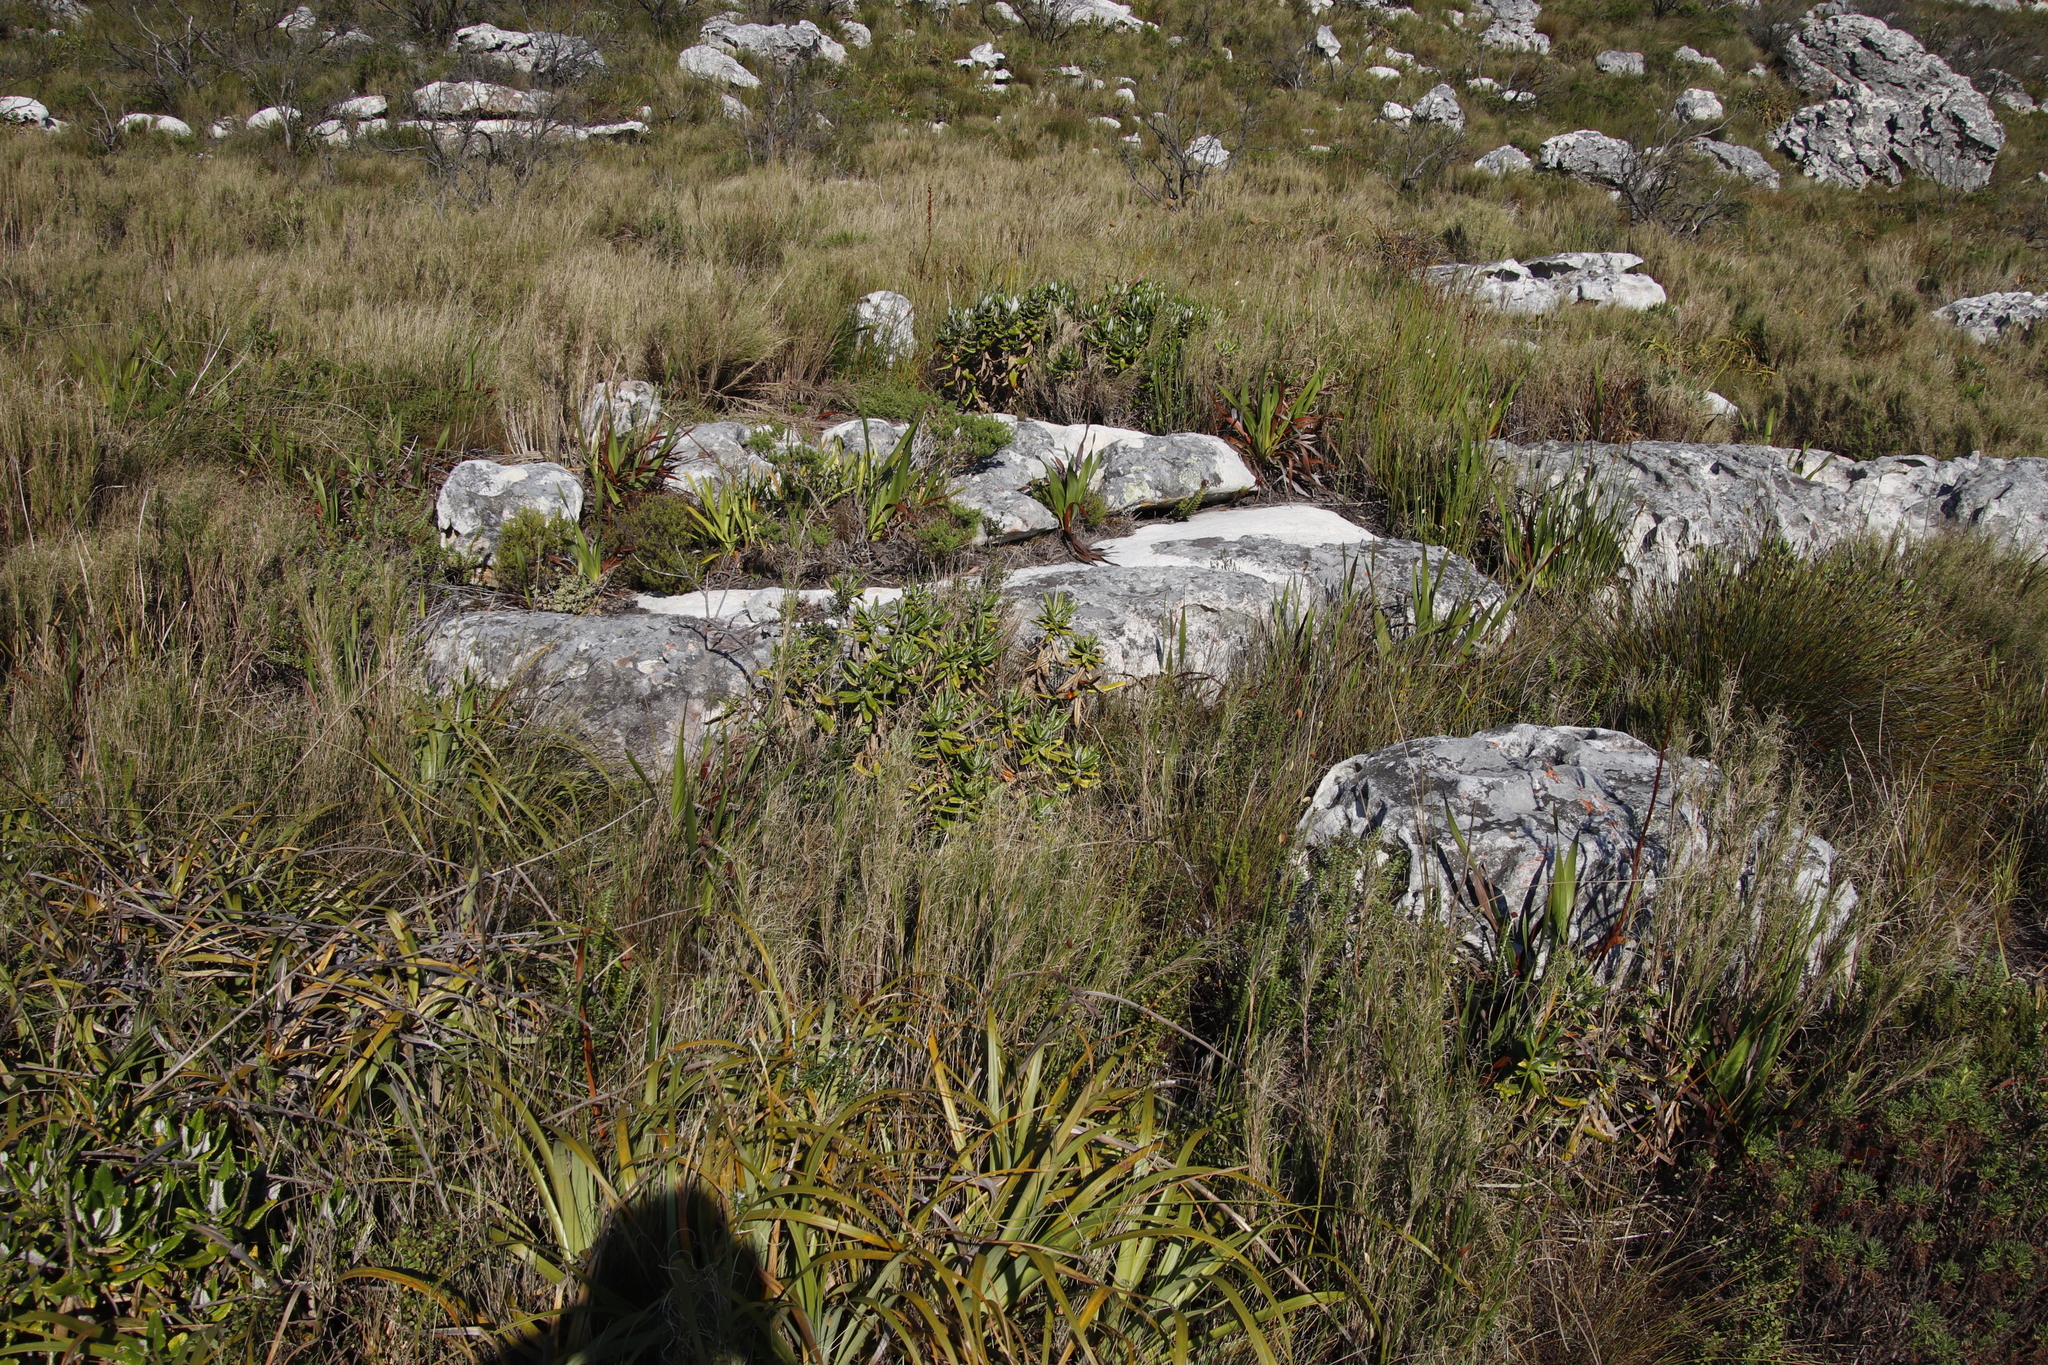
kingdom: Plantae
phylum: Tracheophyta
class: Magnoliopsida
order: Apiales
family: Apiaceae
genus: Hermas
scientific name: Hermas villosa
